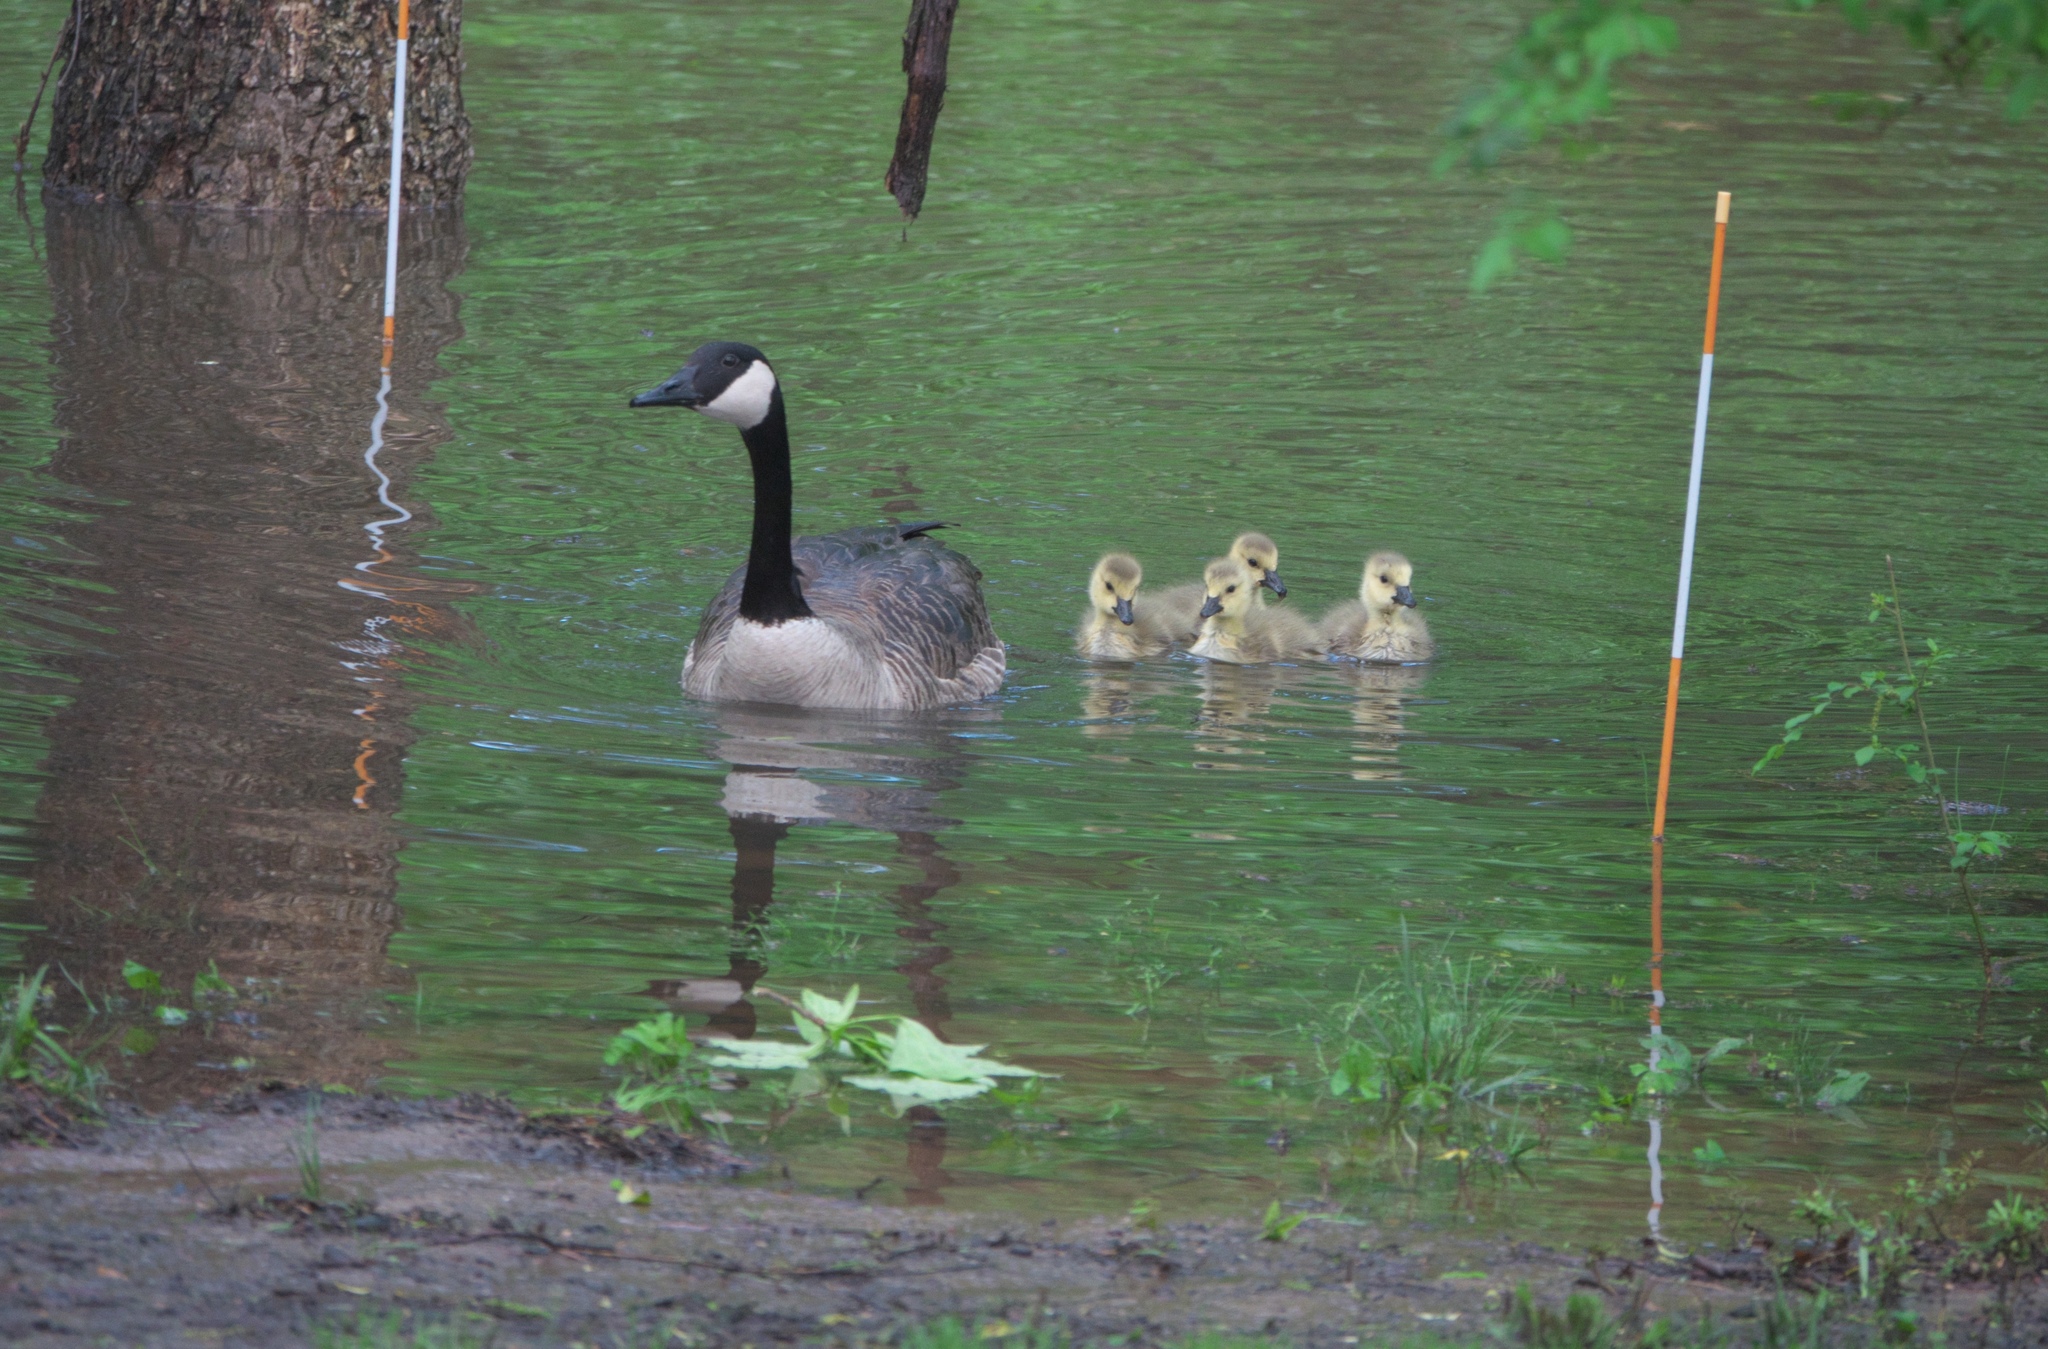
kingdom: Animalia
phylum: Chordata
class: Aves
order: Anseriformes
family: Anatidae
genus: Branta
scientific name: Branta canadensis
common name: Canada goose
